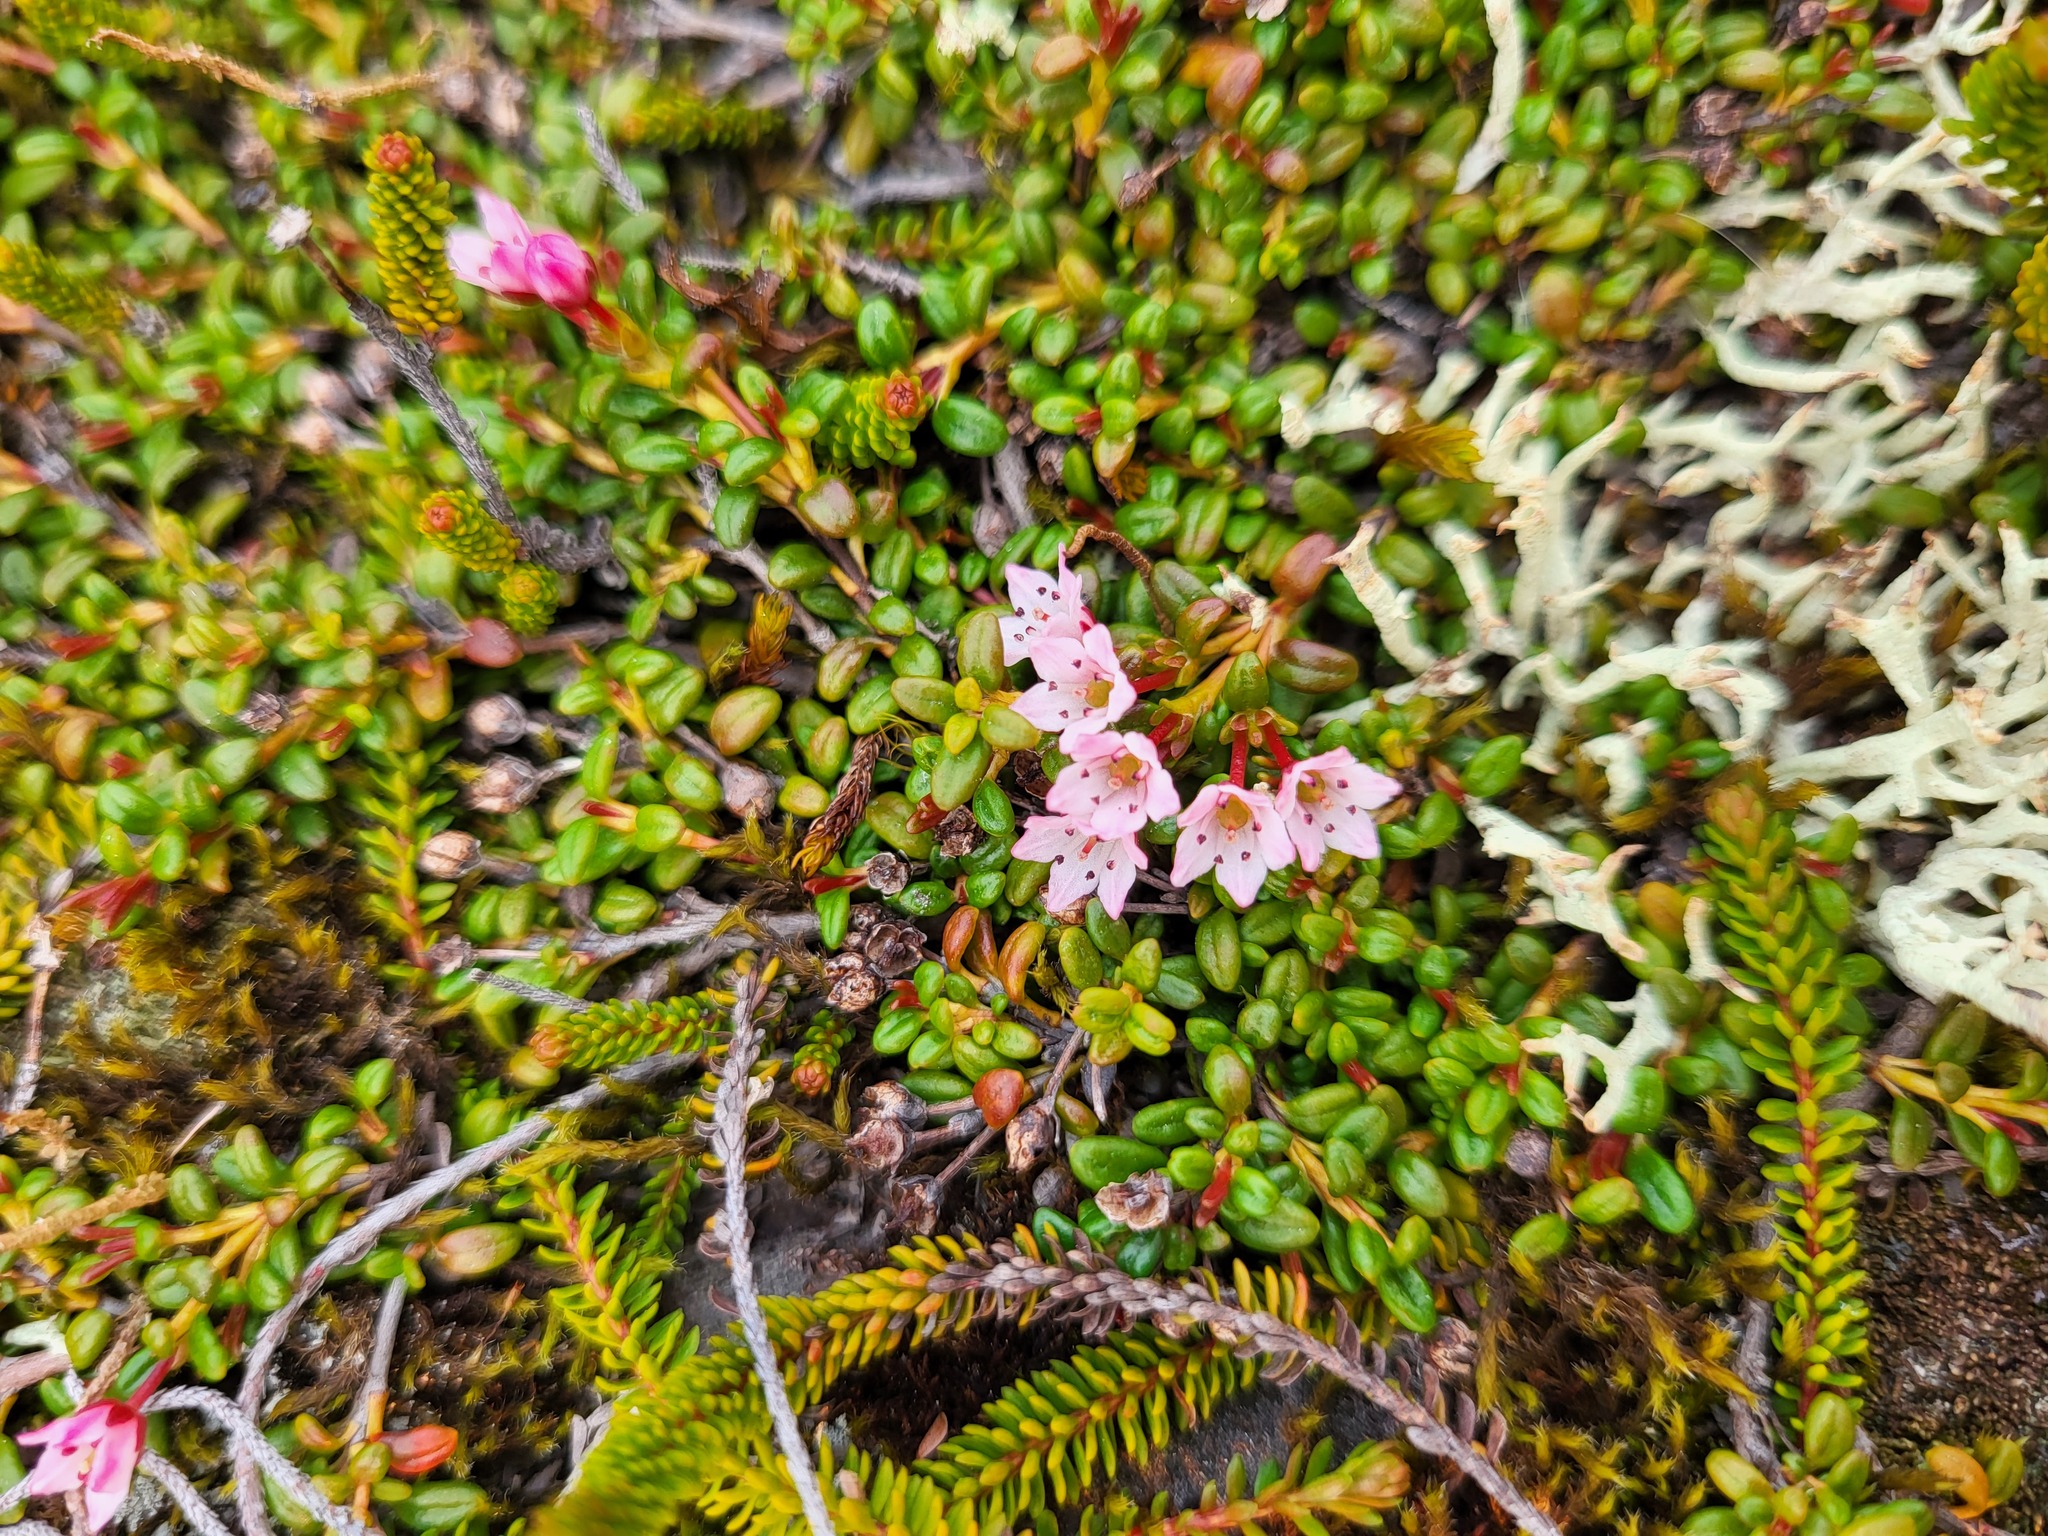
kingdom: Plantae
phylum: Tracheophyta
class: Magnoliopsida
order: Ericales
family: Ericaceae
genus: Kalmia
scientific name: Kalmia procumbens
